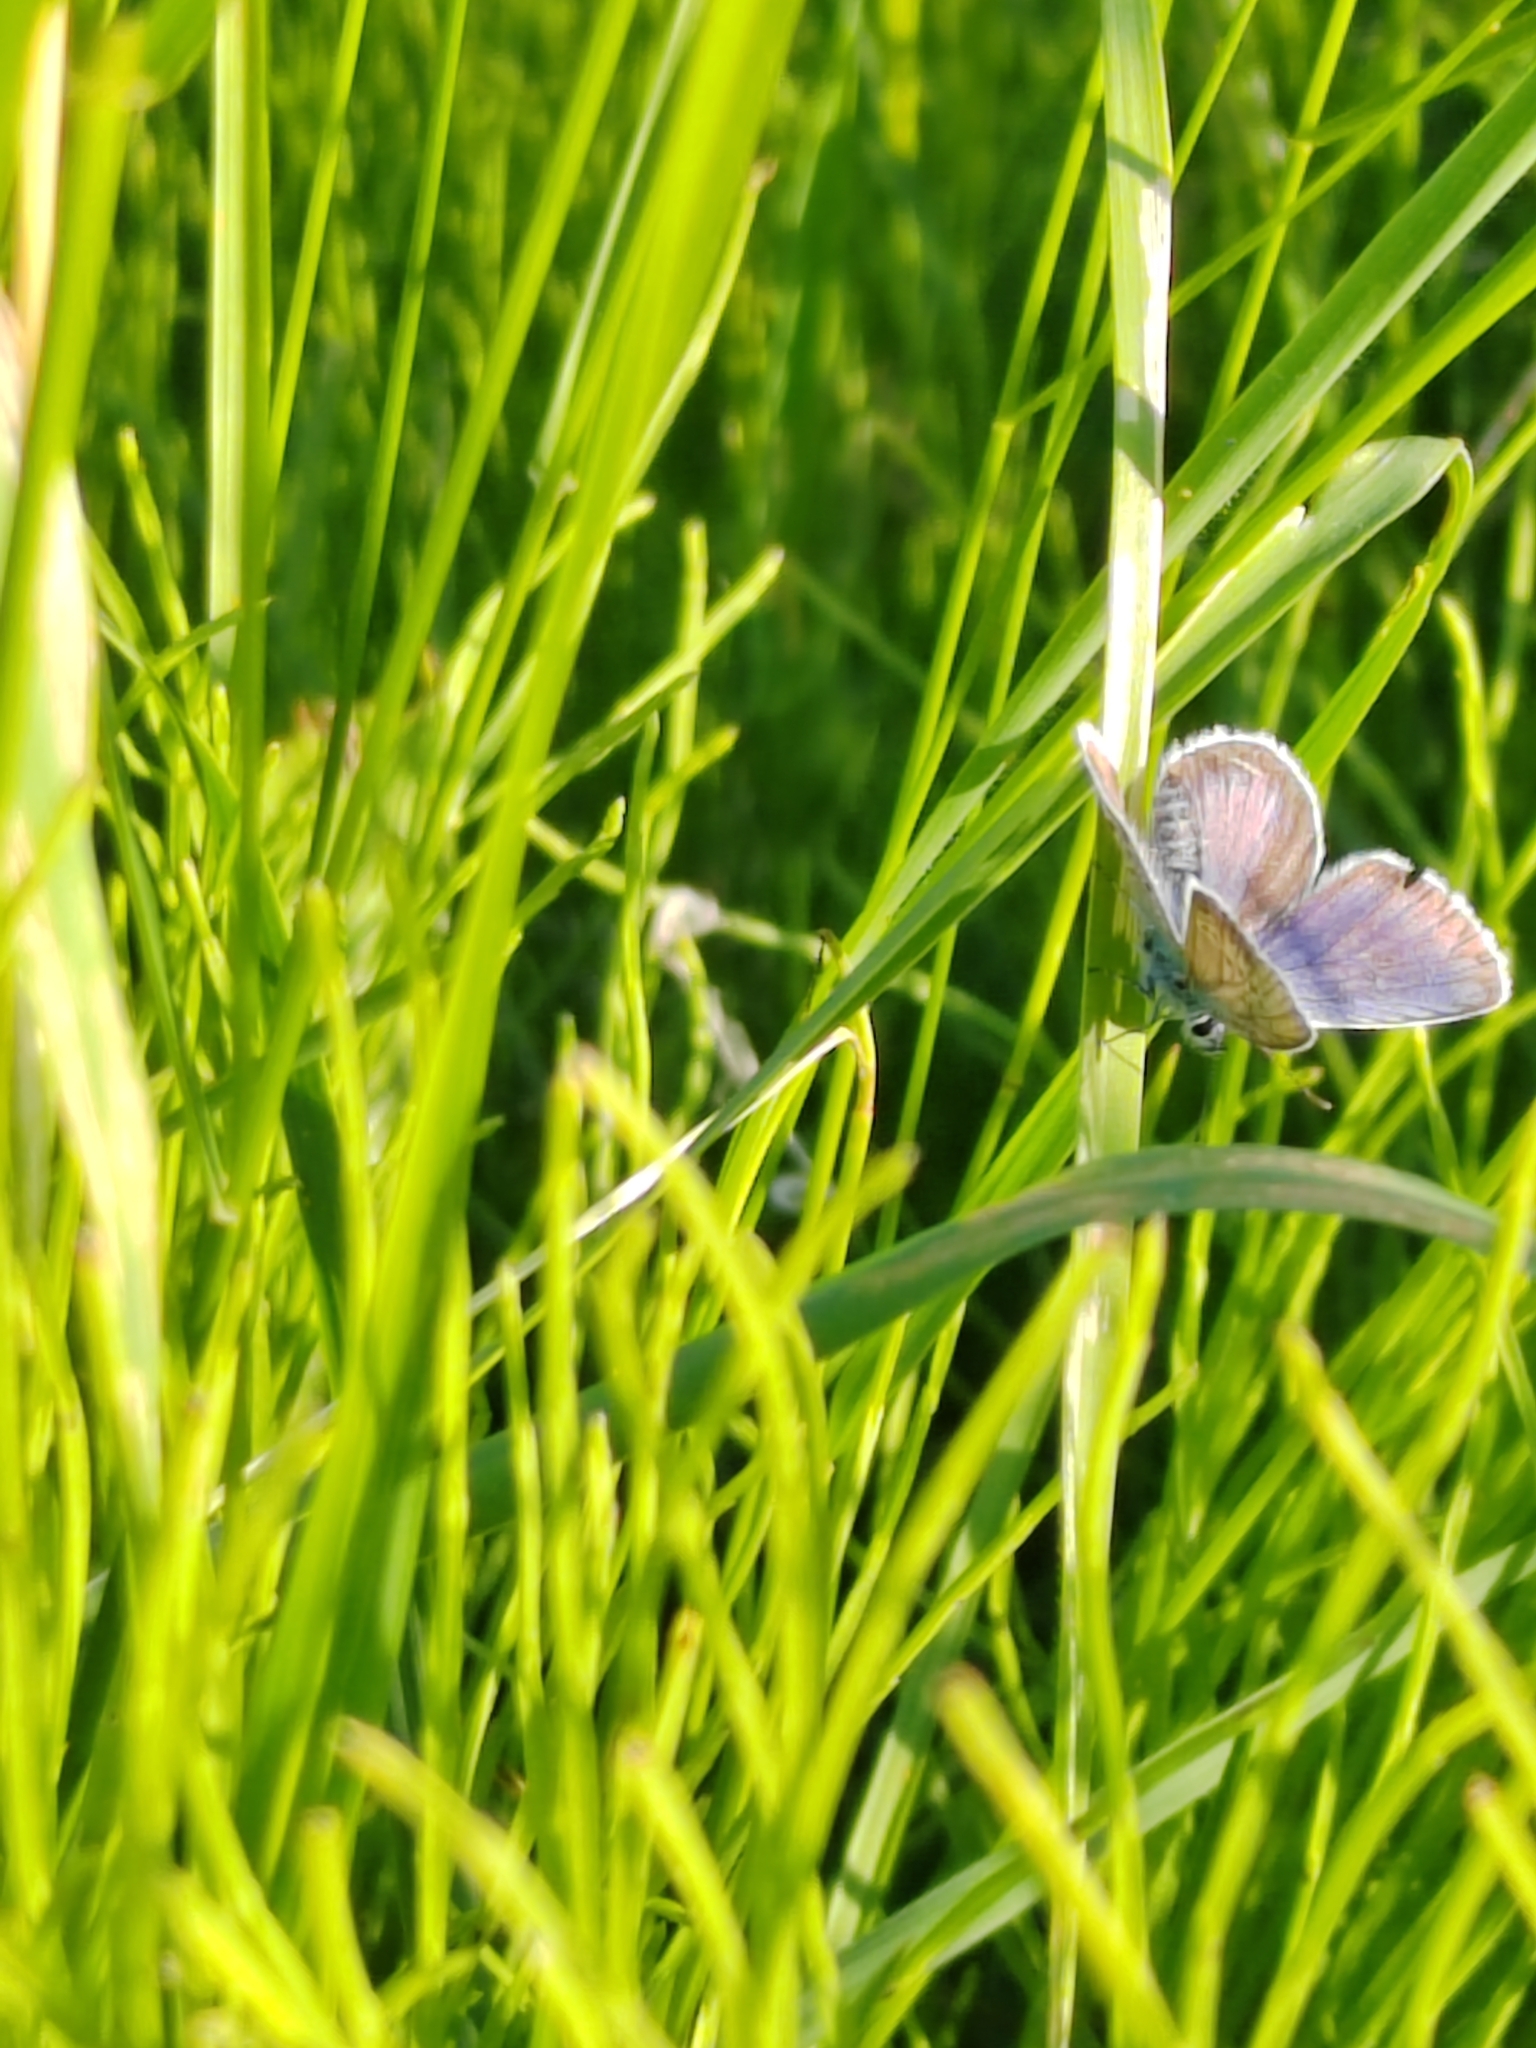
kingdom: Animalia
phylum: Arthropoda
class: Insecta
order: Lepidoptera
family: Lycaenidae
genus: Plebejus
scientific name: Plebejus argus
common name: Silver-studded blue
